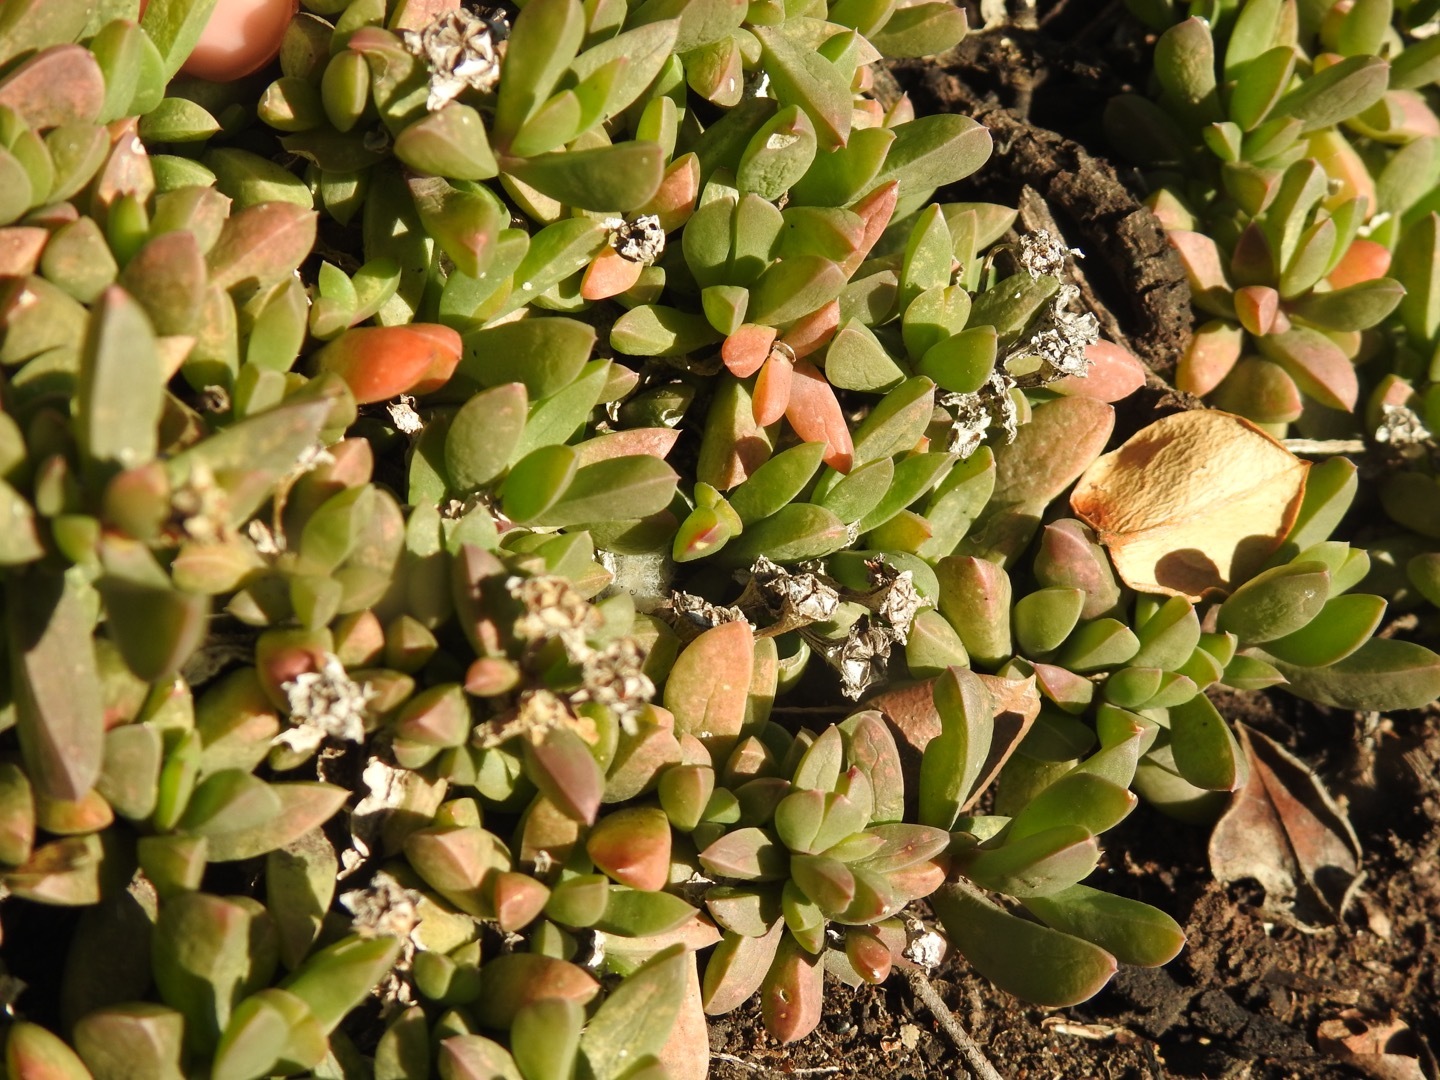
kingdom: Plantae
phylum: Tracheophyta
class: Magnoliopsida
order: Caryophyllales
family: Aizoaceae
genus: Delosperma
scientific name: Delosperma litorale
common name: Seaside delosperma
